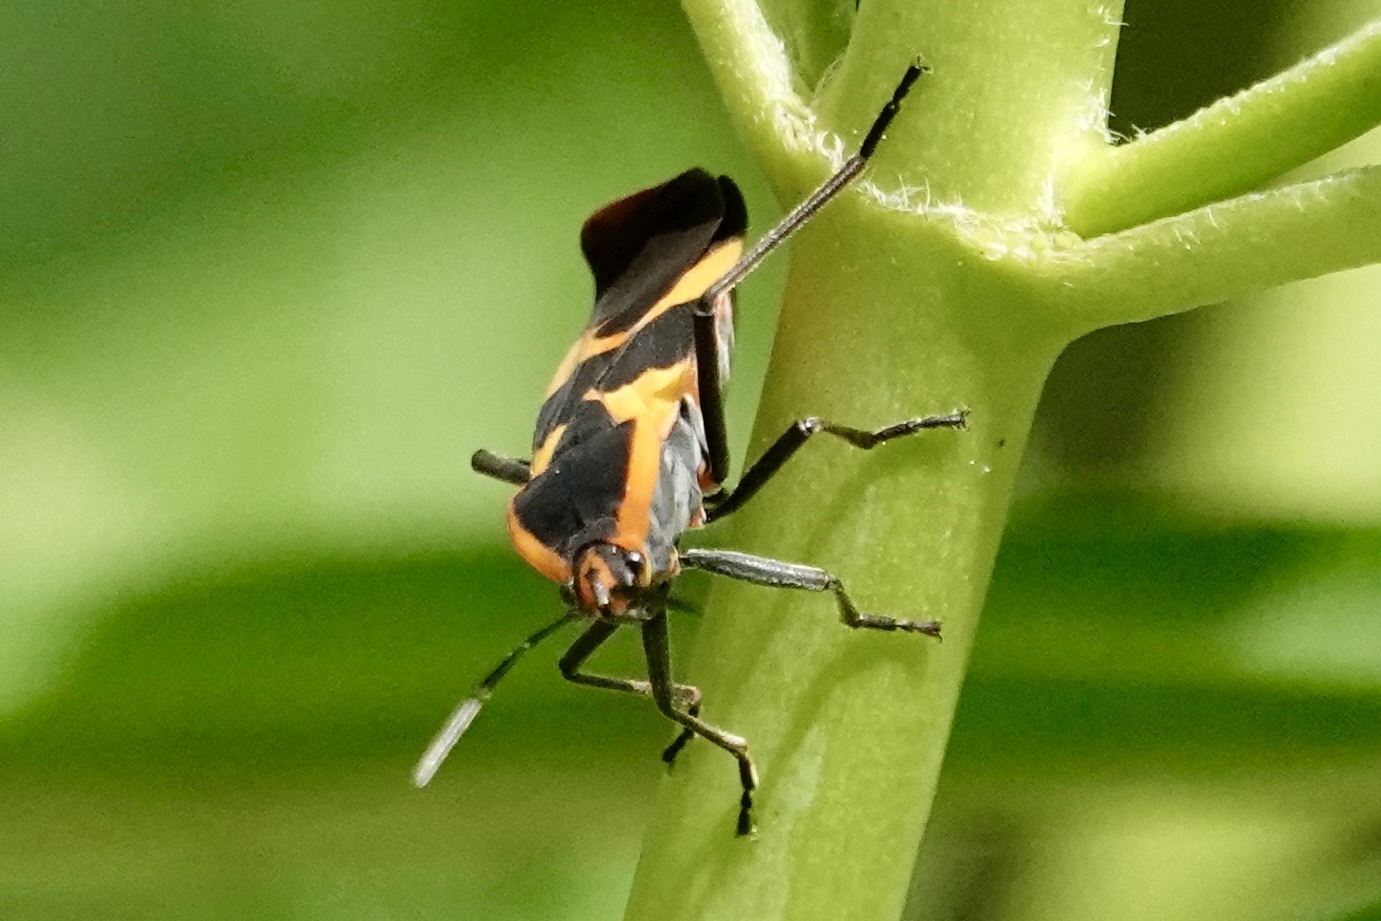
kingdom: Animalia
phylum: Arthropoda
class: Insecta
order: Hemiptera
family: Lygaeidae
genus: Oncopeltus
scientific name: Oncopeltus fasciatus
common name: Large milkweed bug
